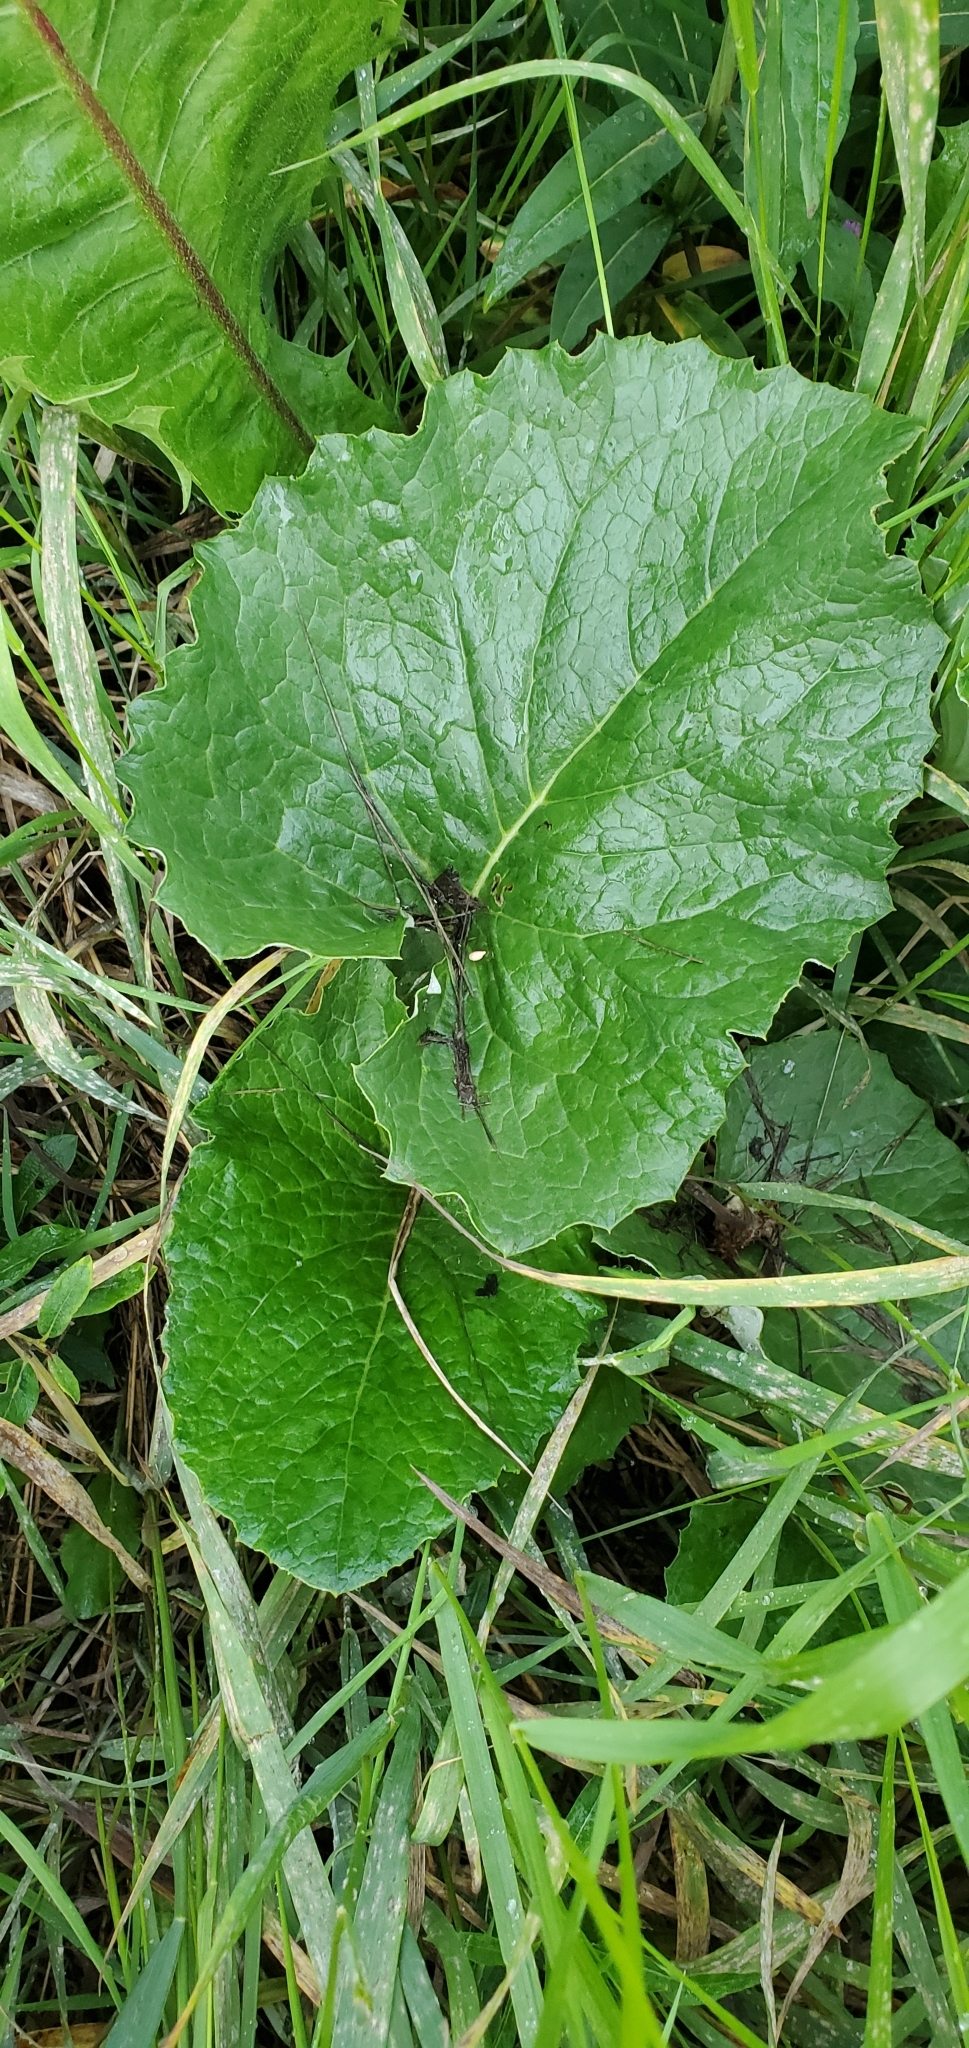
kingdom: Plantae
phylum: Tracheophyta
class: Magnoliopsida
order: Asterales
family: Asteraceae
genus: Petasites
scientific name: Petasites frigidus
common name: Arctic butterbur
